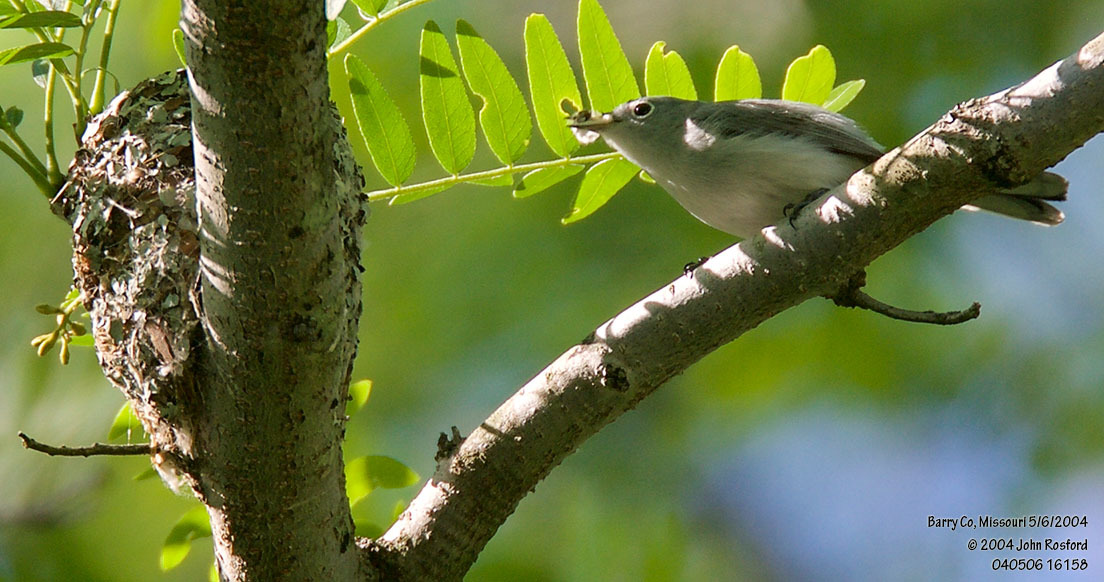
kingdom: Animalia
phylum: Chordata
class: Aves
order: Passeriformes
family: Polioptilidae
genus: Polioptila
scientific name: Polioptila caerulea
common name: Blue-gray gnatcatcher
